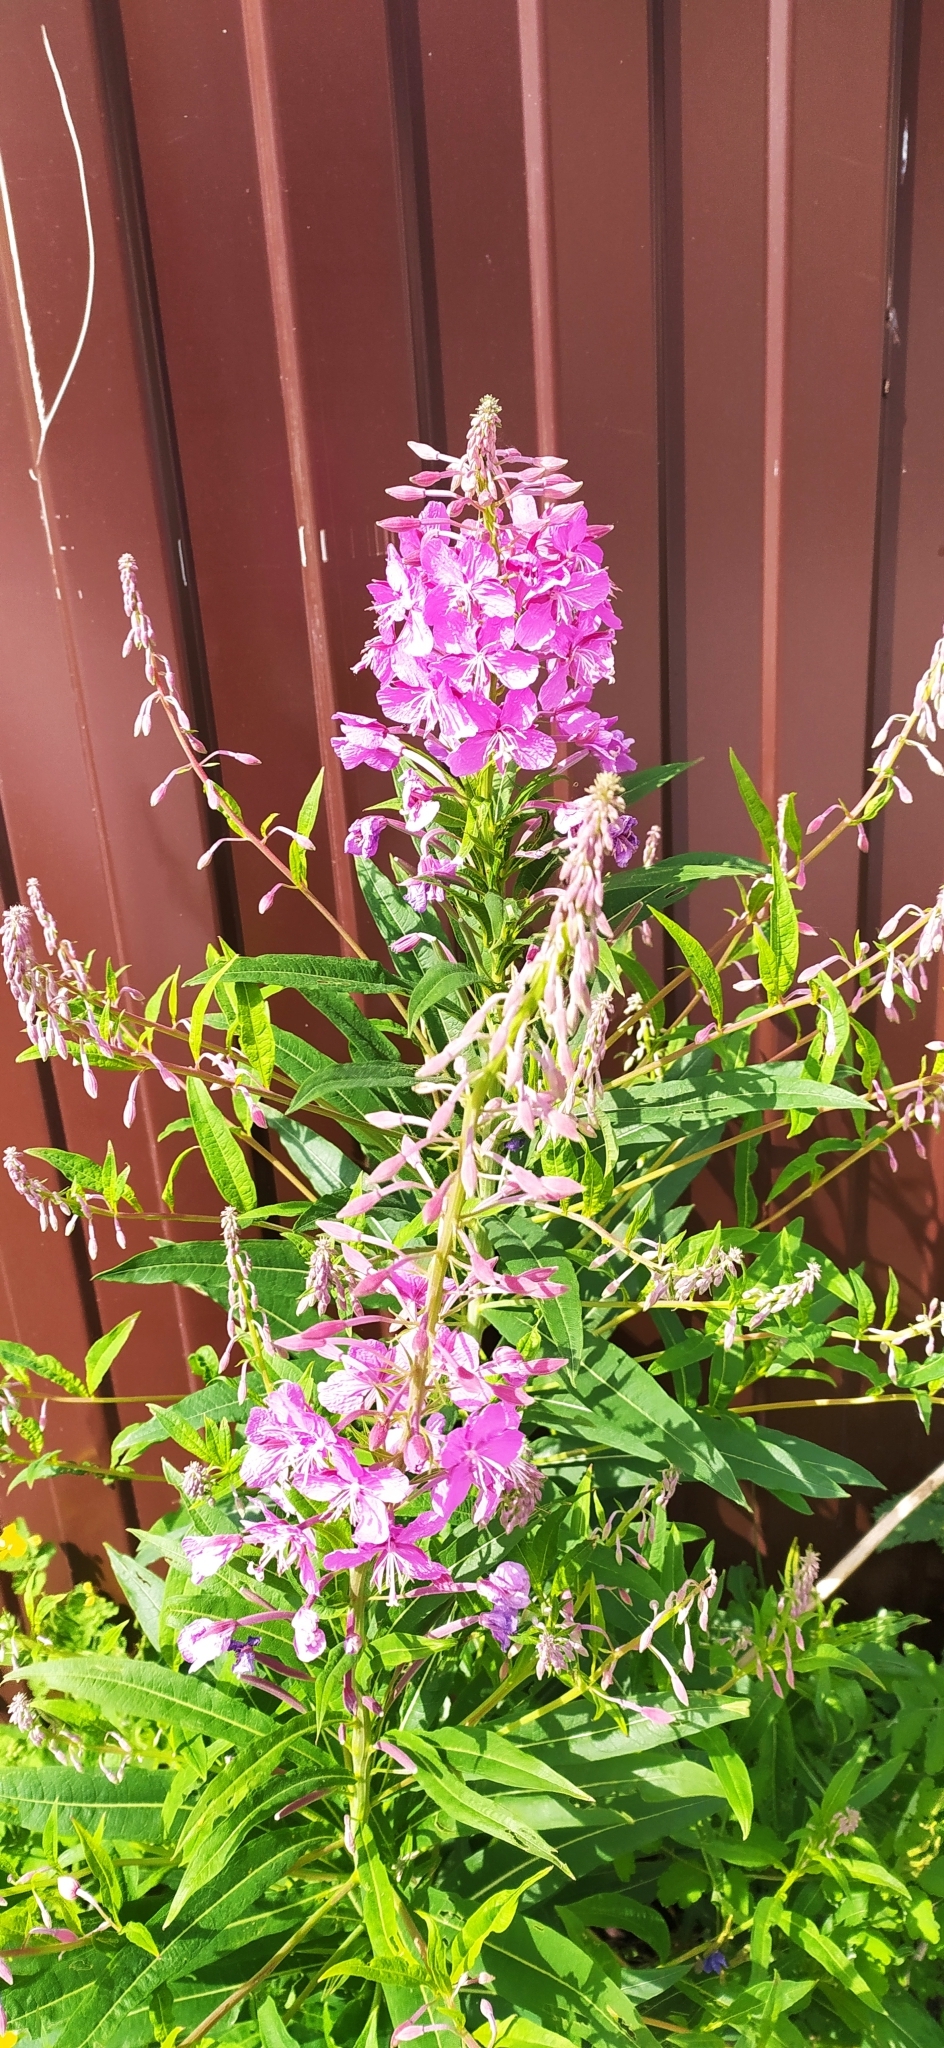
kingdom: Plantae
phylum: Tracheophyta
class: Magnoliopsida
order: Myrtales
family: Onagraceae
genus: Chamaenerion
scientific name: Chamaenerion angustifolium
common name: Fireweed
